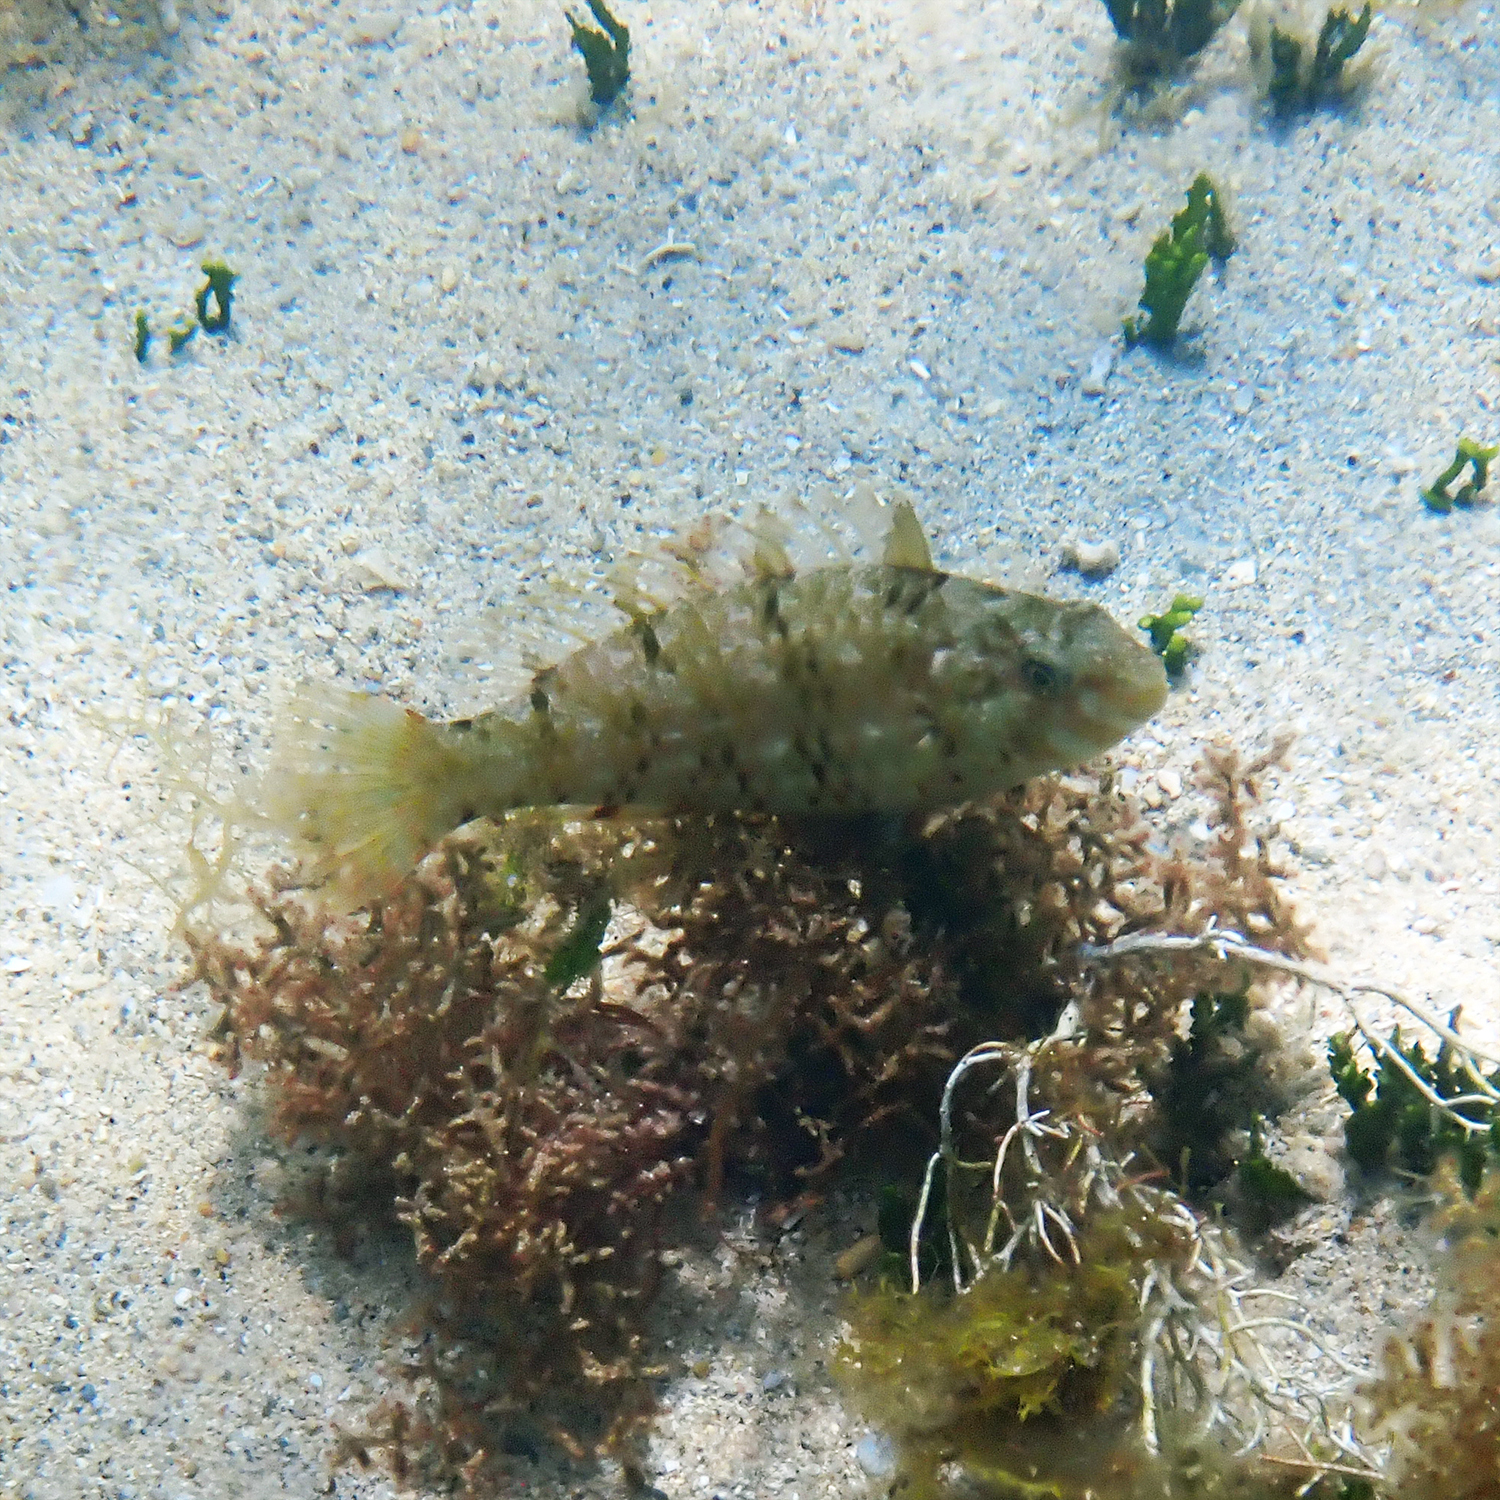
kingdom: Animalia
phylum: Chordata
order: Perciformes
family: Scaridae
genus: Leptoscarus
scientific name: Leptoscarus vaigiensis
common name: Marbled parrotfish
